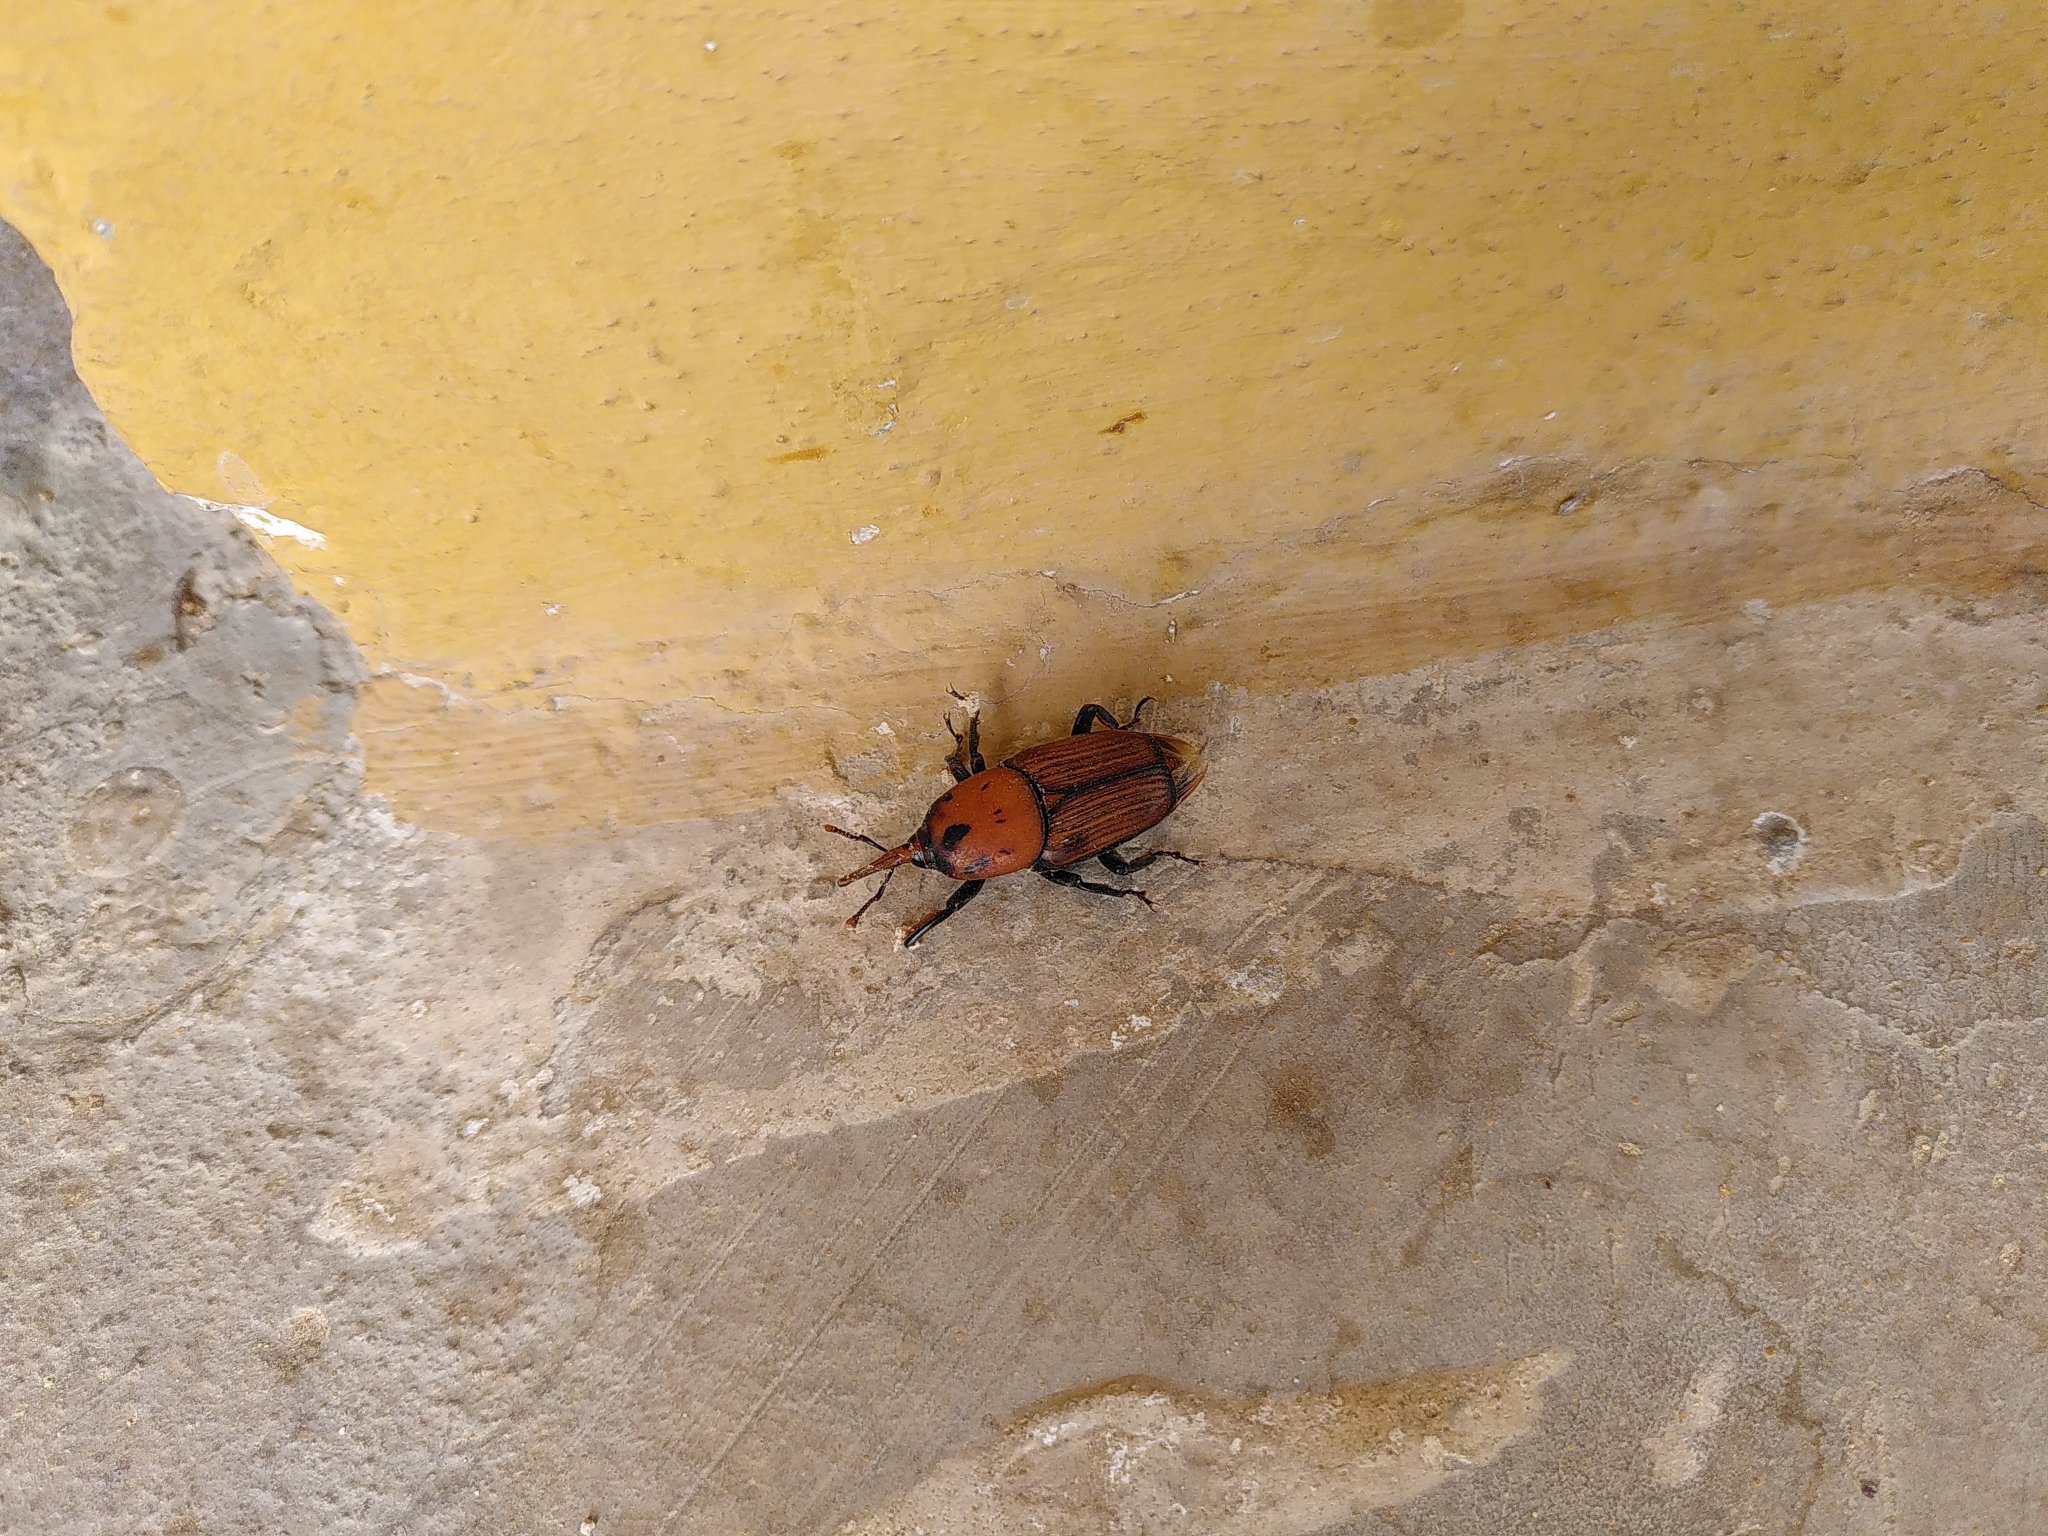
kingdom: Animalia
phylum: Arthropoda
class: Insecta
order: Coleoptera
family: Dryophthoridae
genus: Rhynchophorus
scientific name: Rhynchophorus ferrugineus
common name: Red palm weevil
